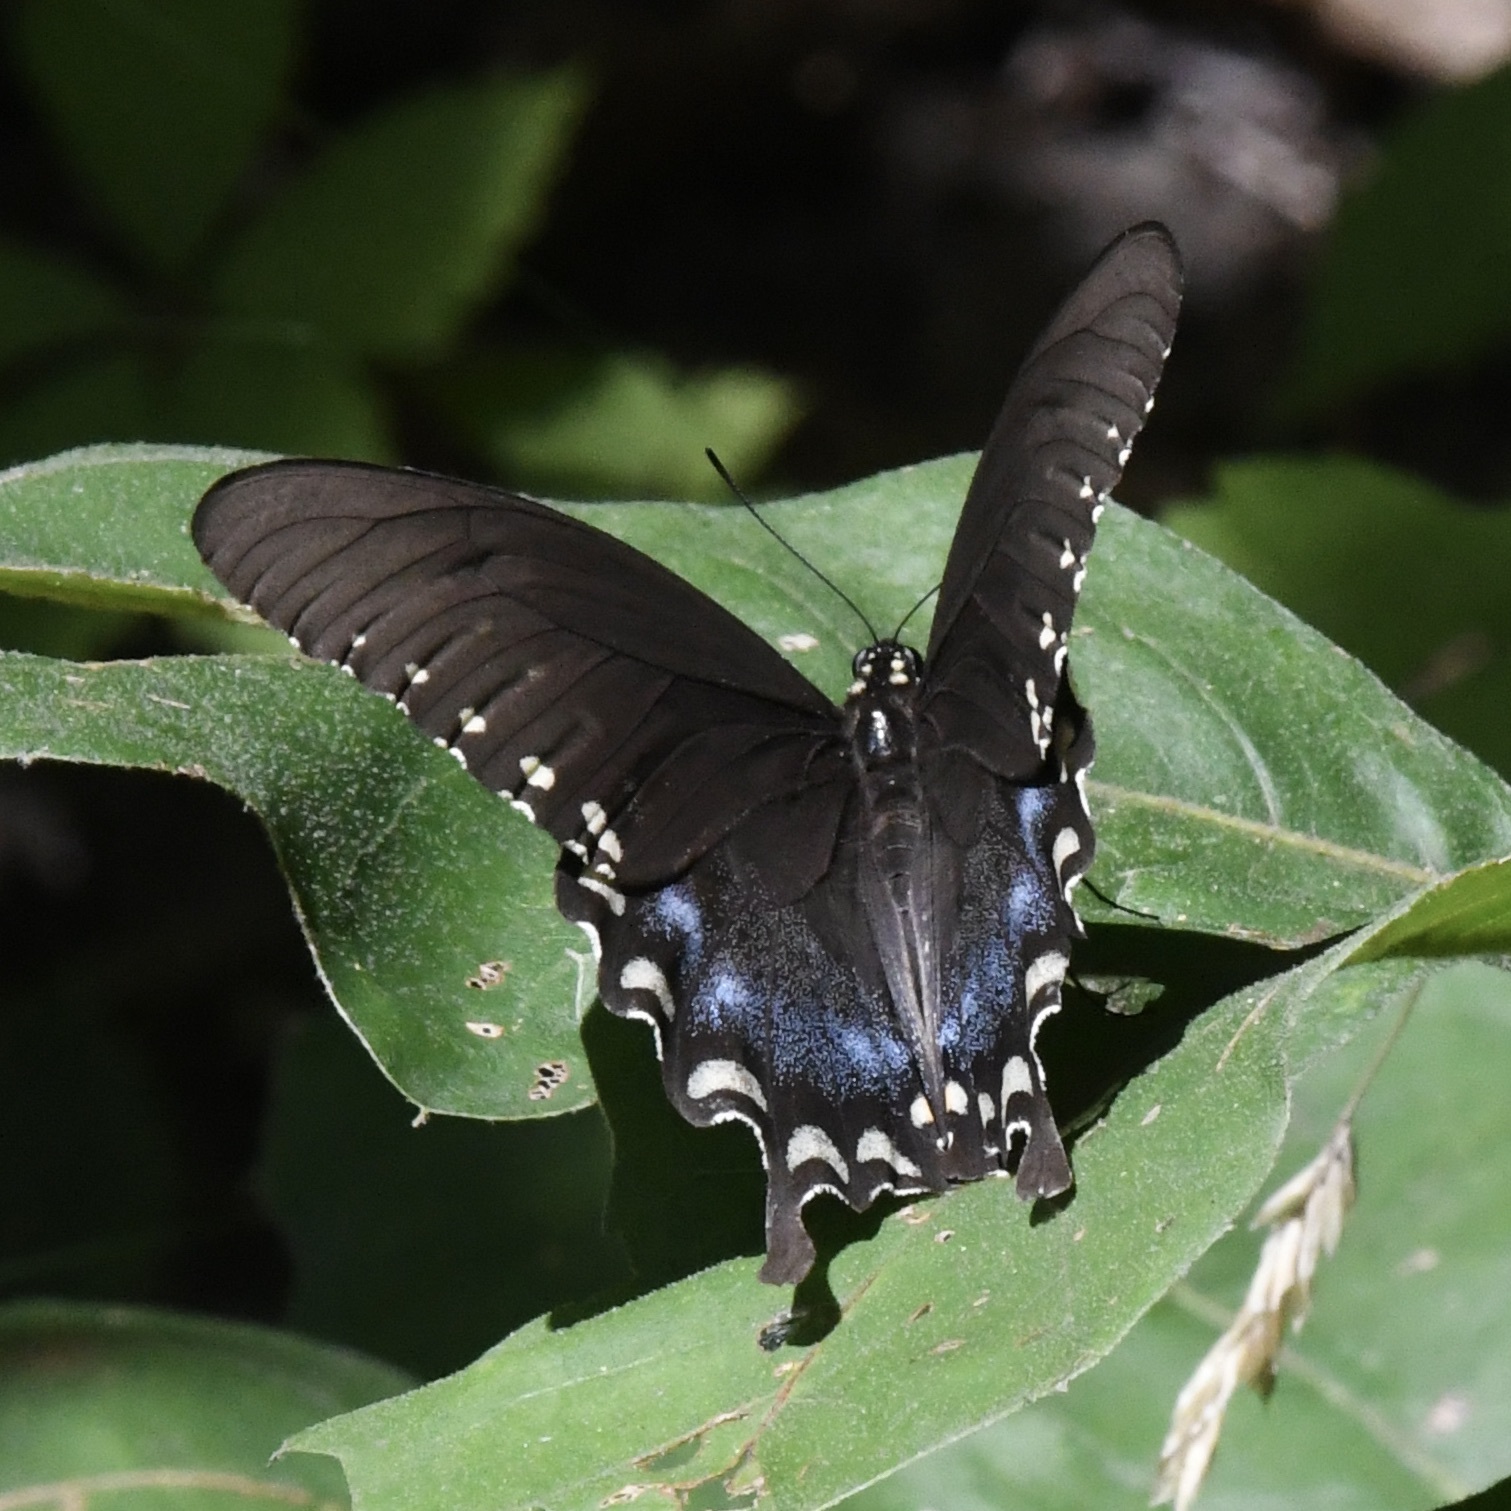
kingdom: Animalia
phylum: Arthropoda
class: Insecta
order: Lepidoptera
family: Papilionidae
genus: Papilio
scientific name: Papilio troilus
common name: Spicebush swallowtail
